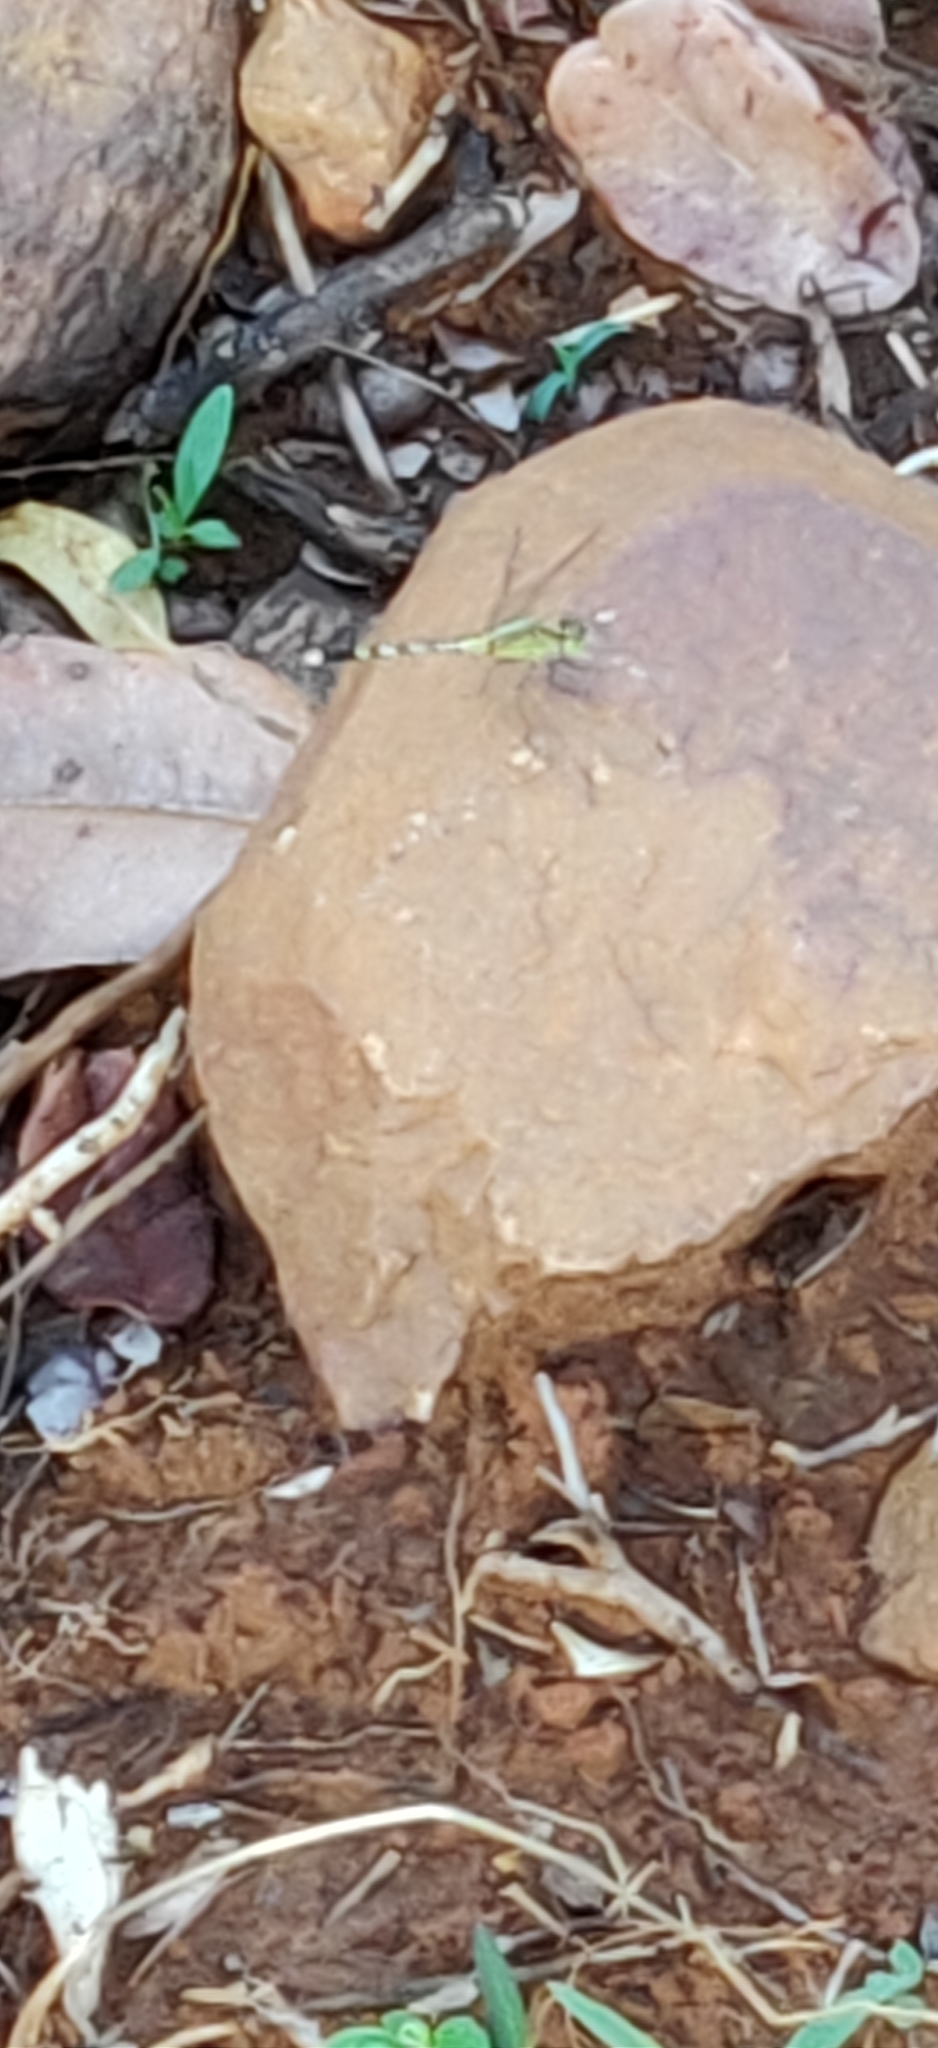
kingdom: Animalia
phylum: Arthropoda
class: Insecta
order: Odonata
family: Libellulidae
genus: Diplacodes
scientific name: Diplacodes trivialis
